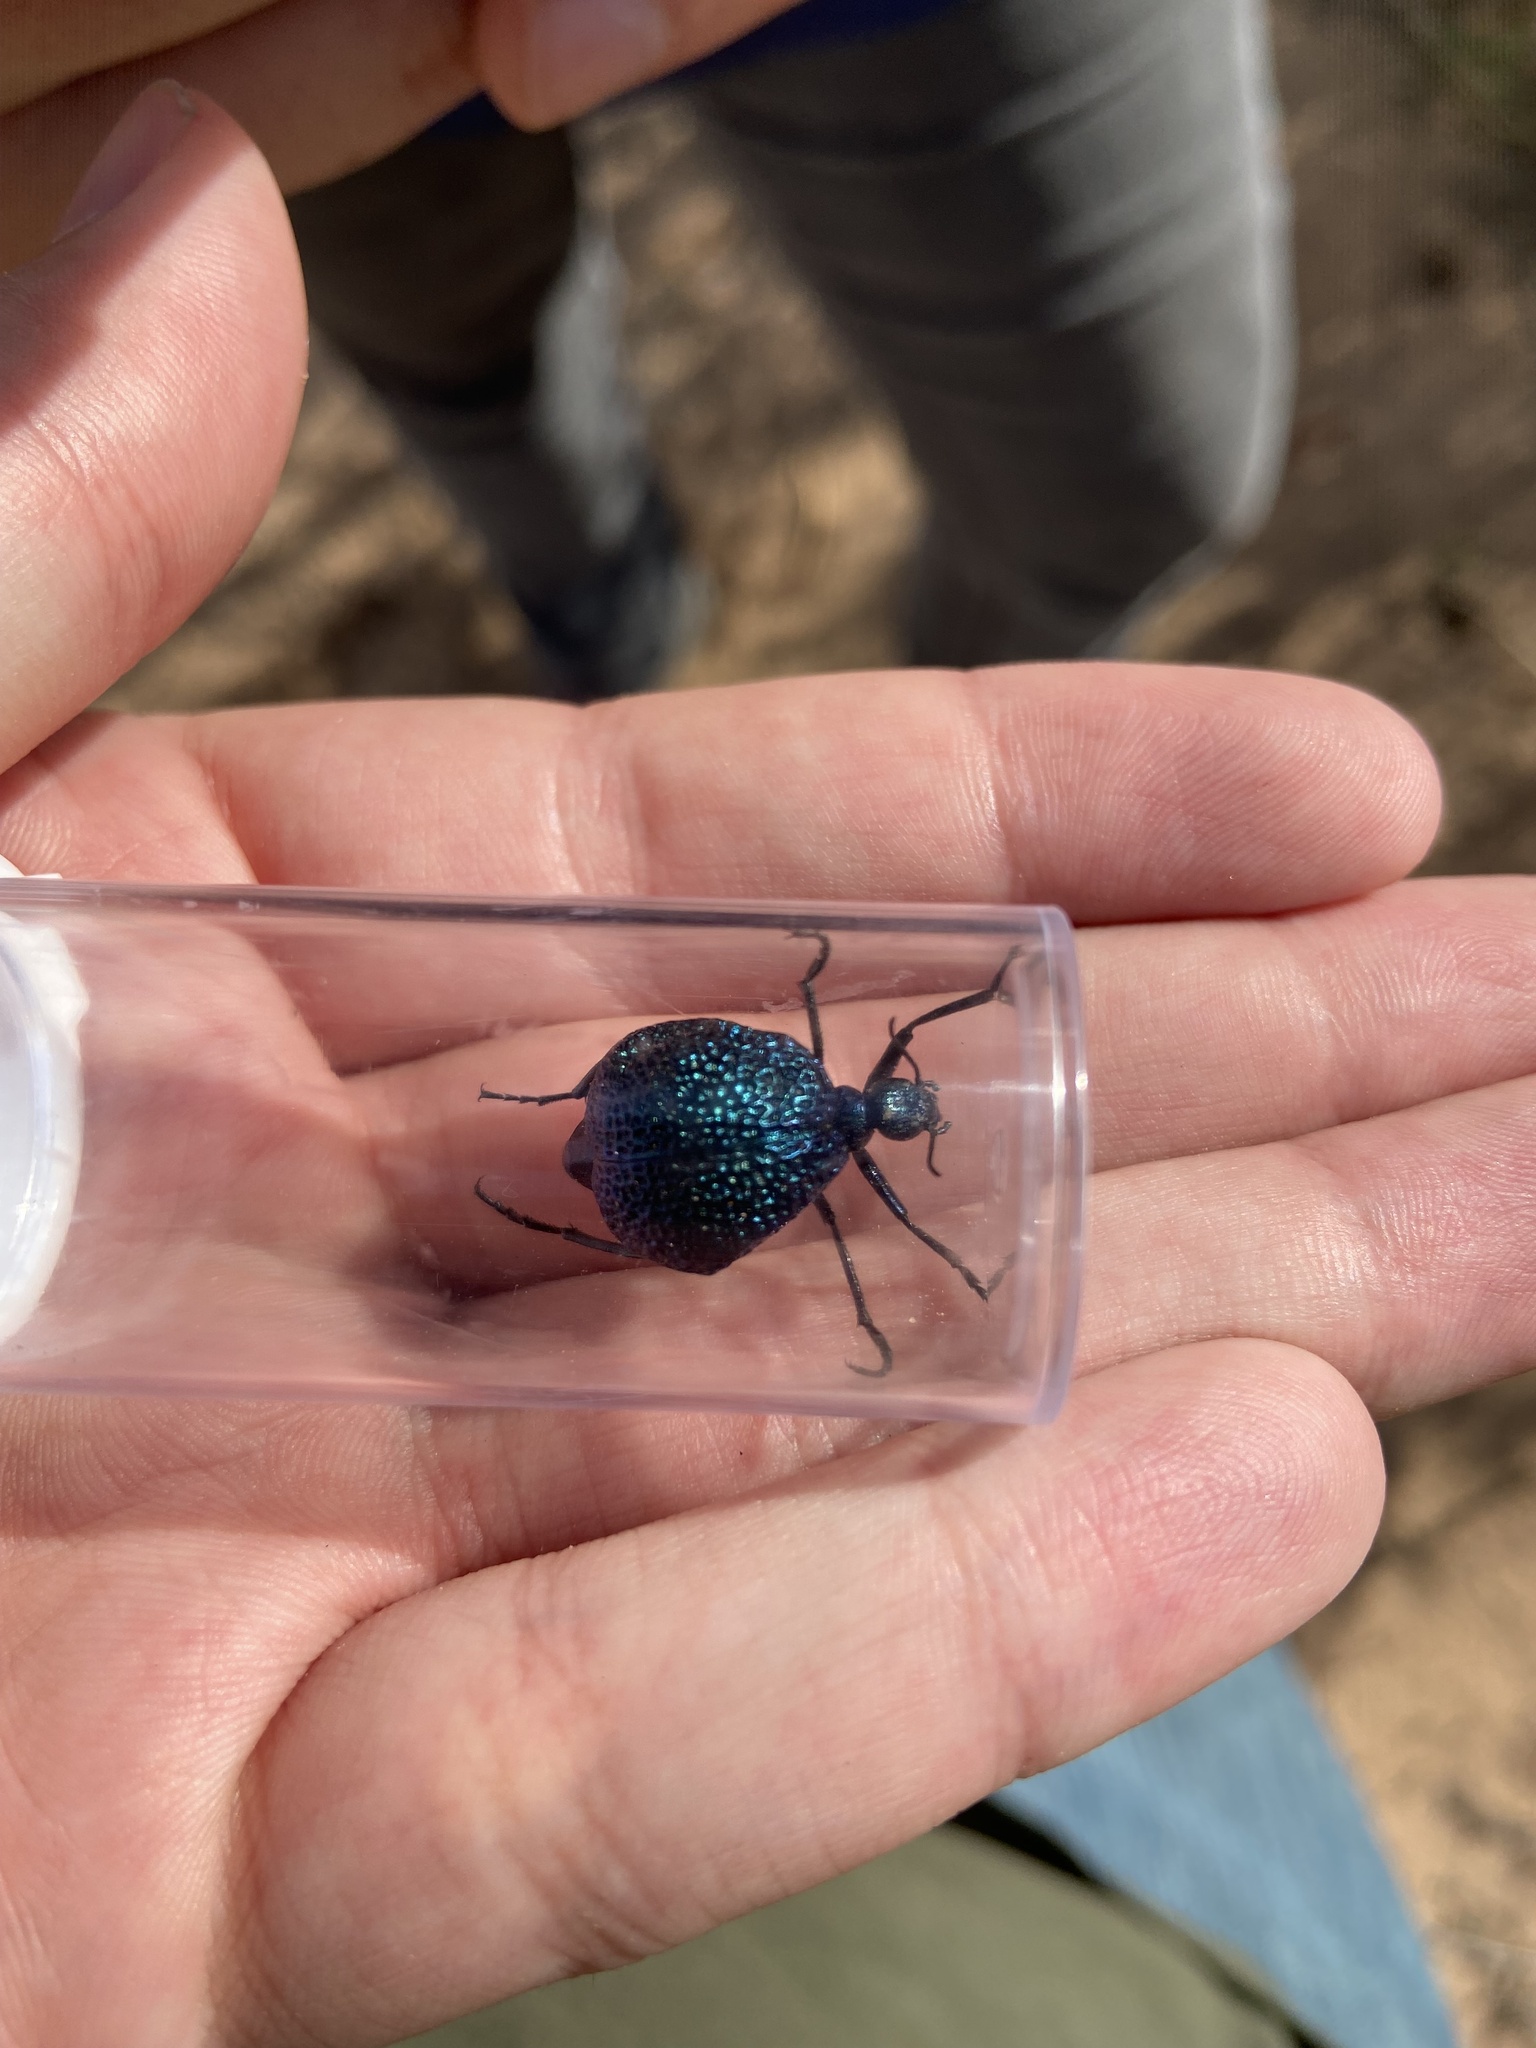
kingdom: Animalia
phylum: Arthropoda
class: Insecta
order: Coleoptera
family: Meloidae
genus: Cysteodemus
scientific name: Cysteodemus wislizeni
